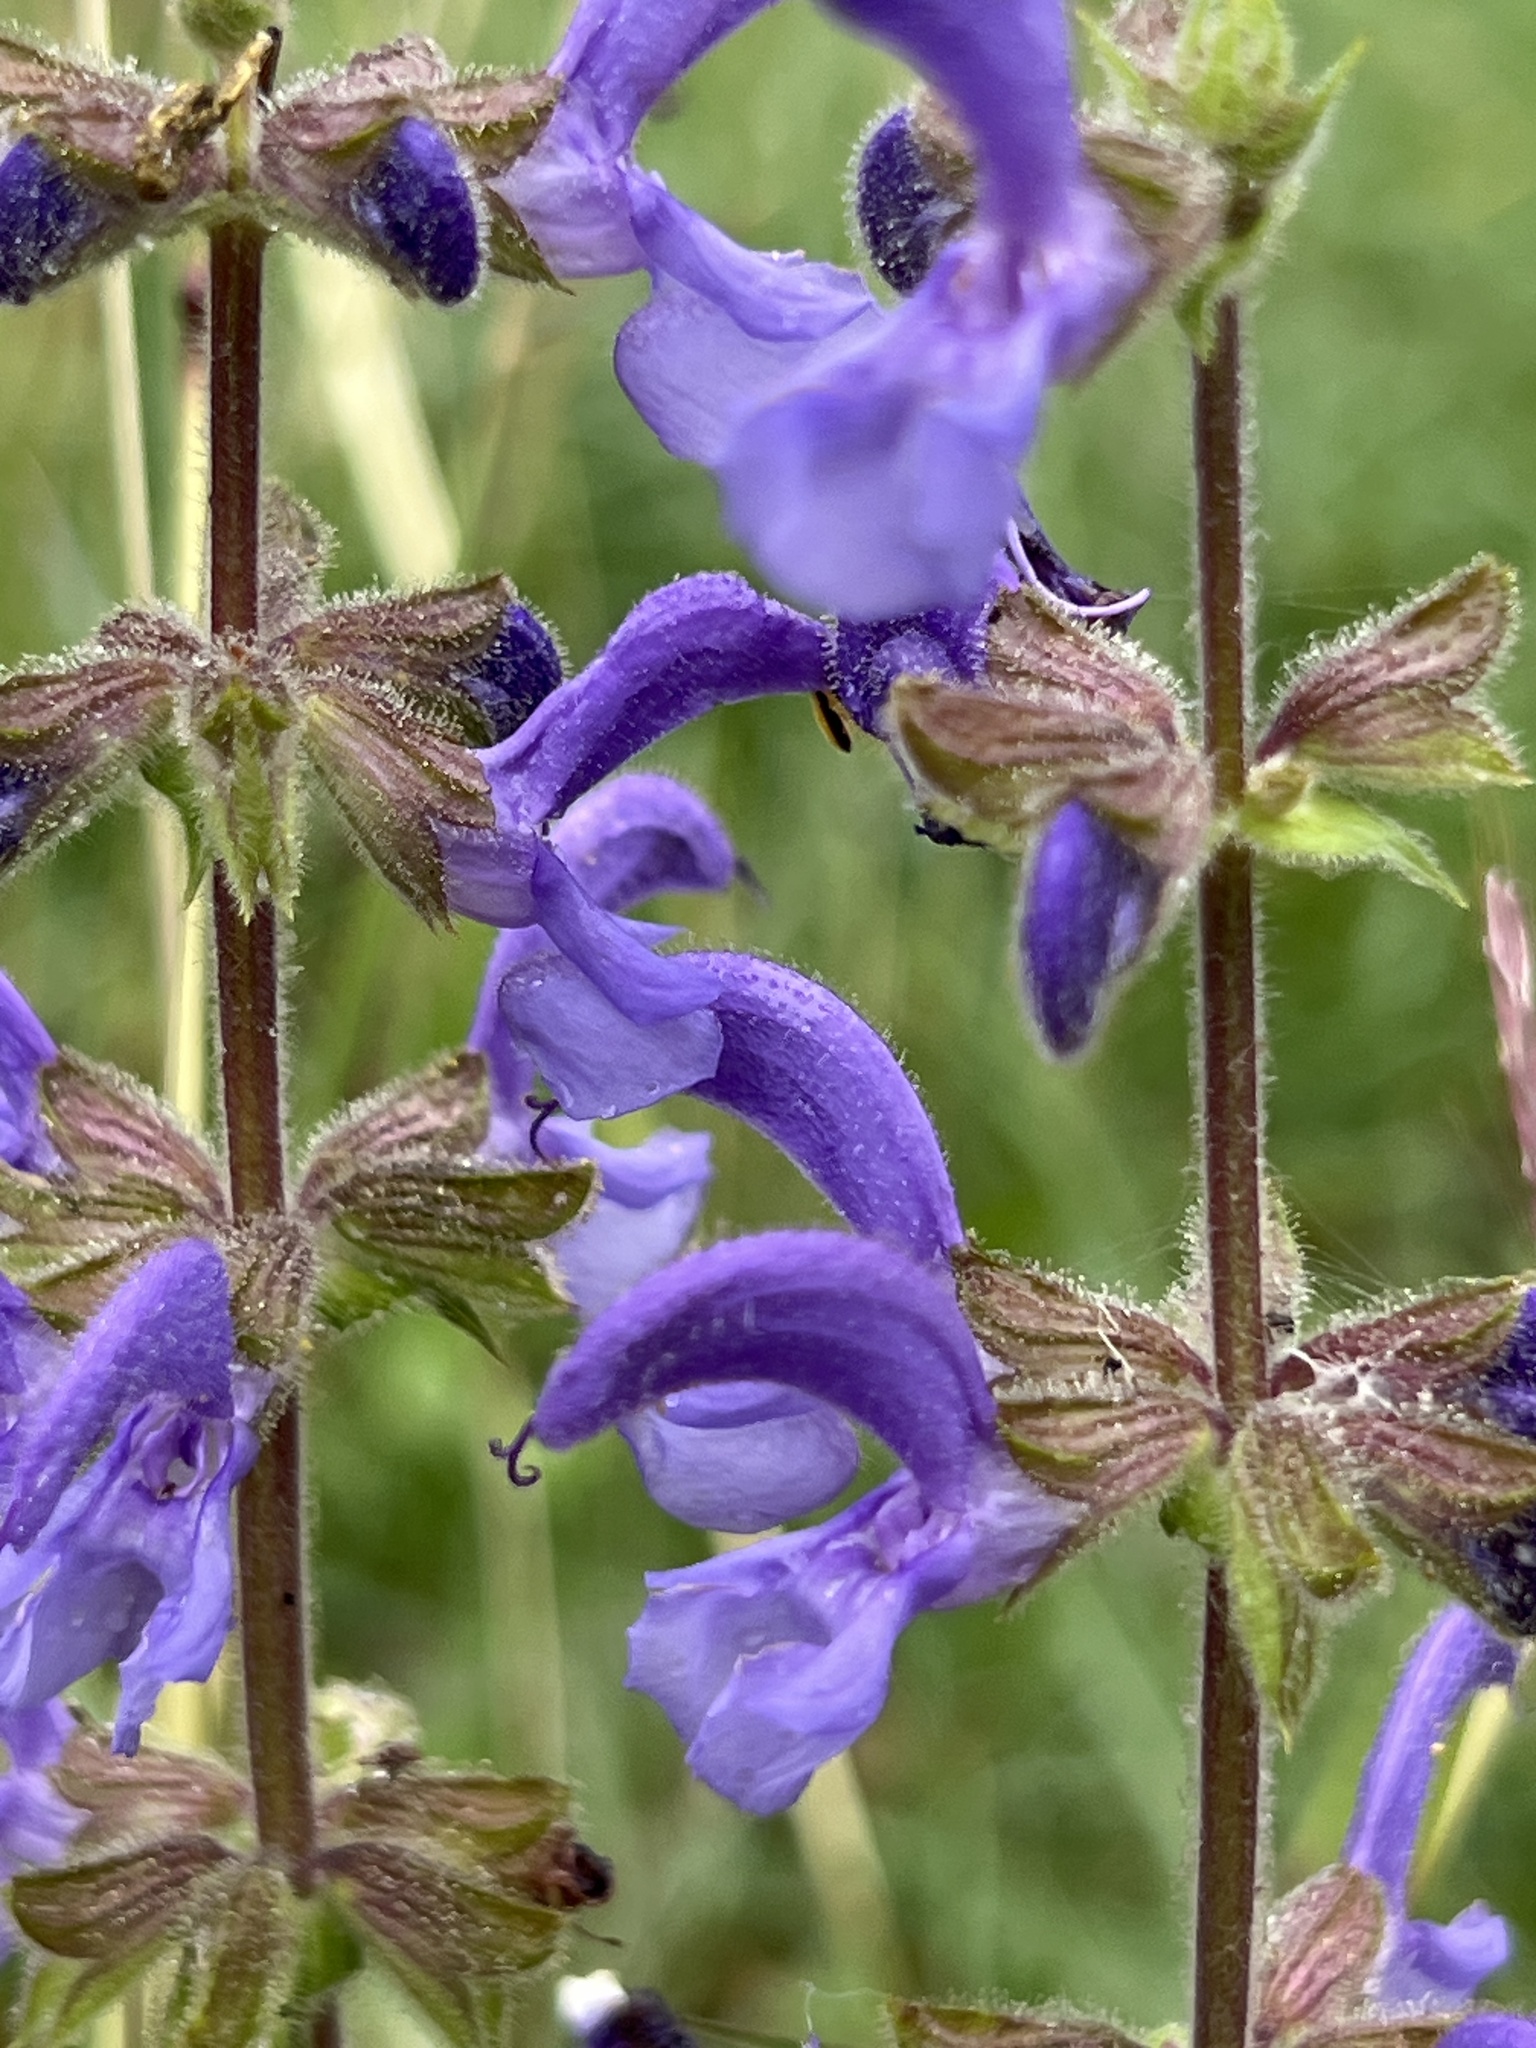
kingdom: Plantae
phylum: Tracheophyta
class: Magnoliopsida
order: Lamiales
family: Lamiaceae
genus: Salvia
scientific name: Salvia pratensis
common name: Meadow sage
